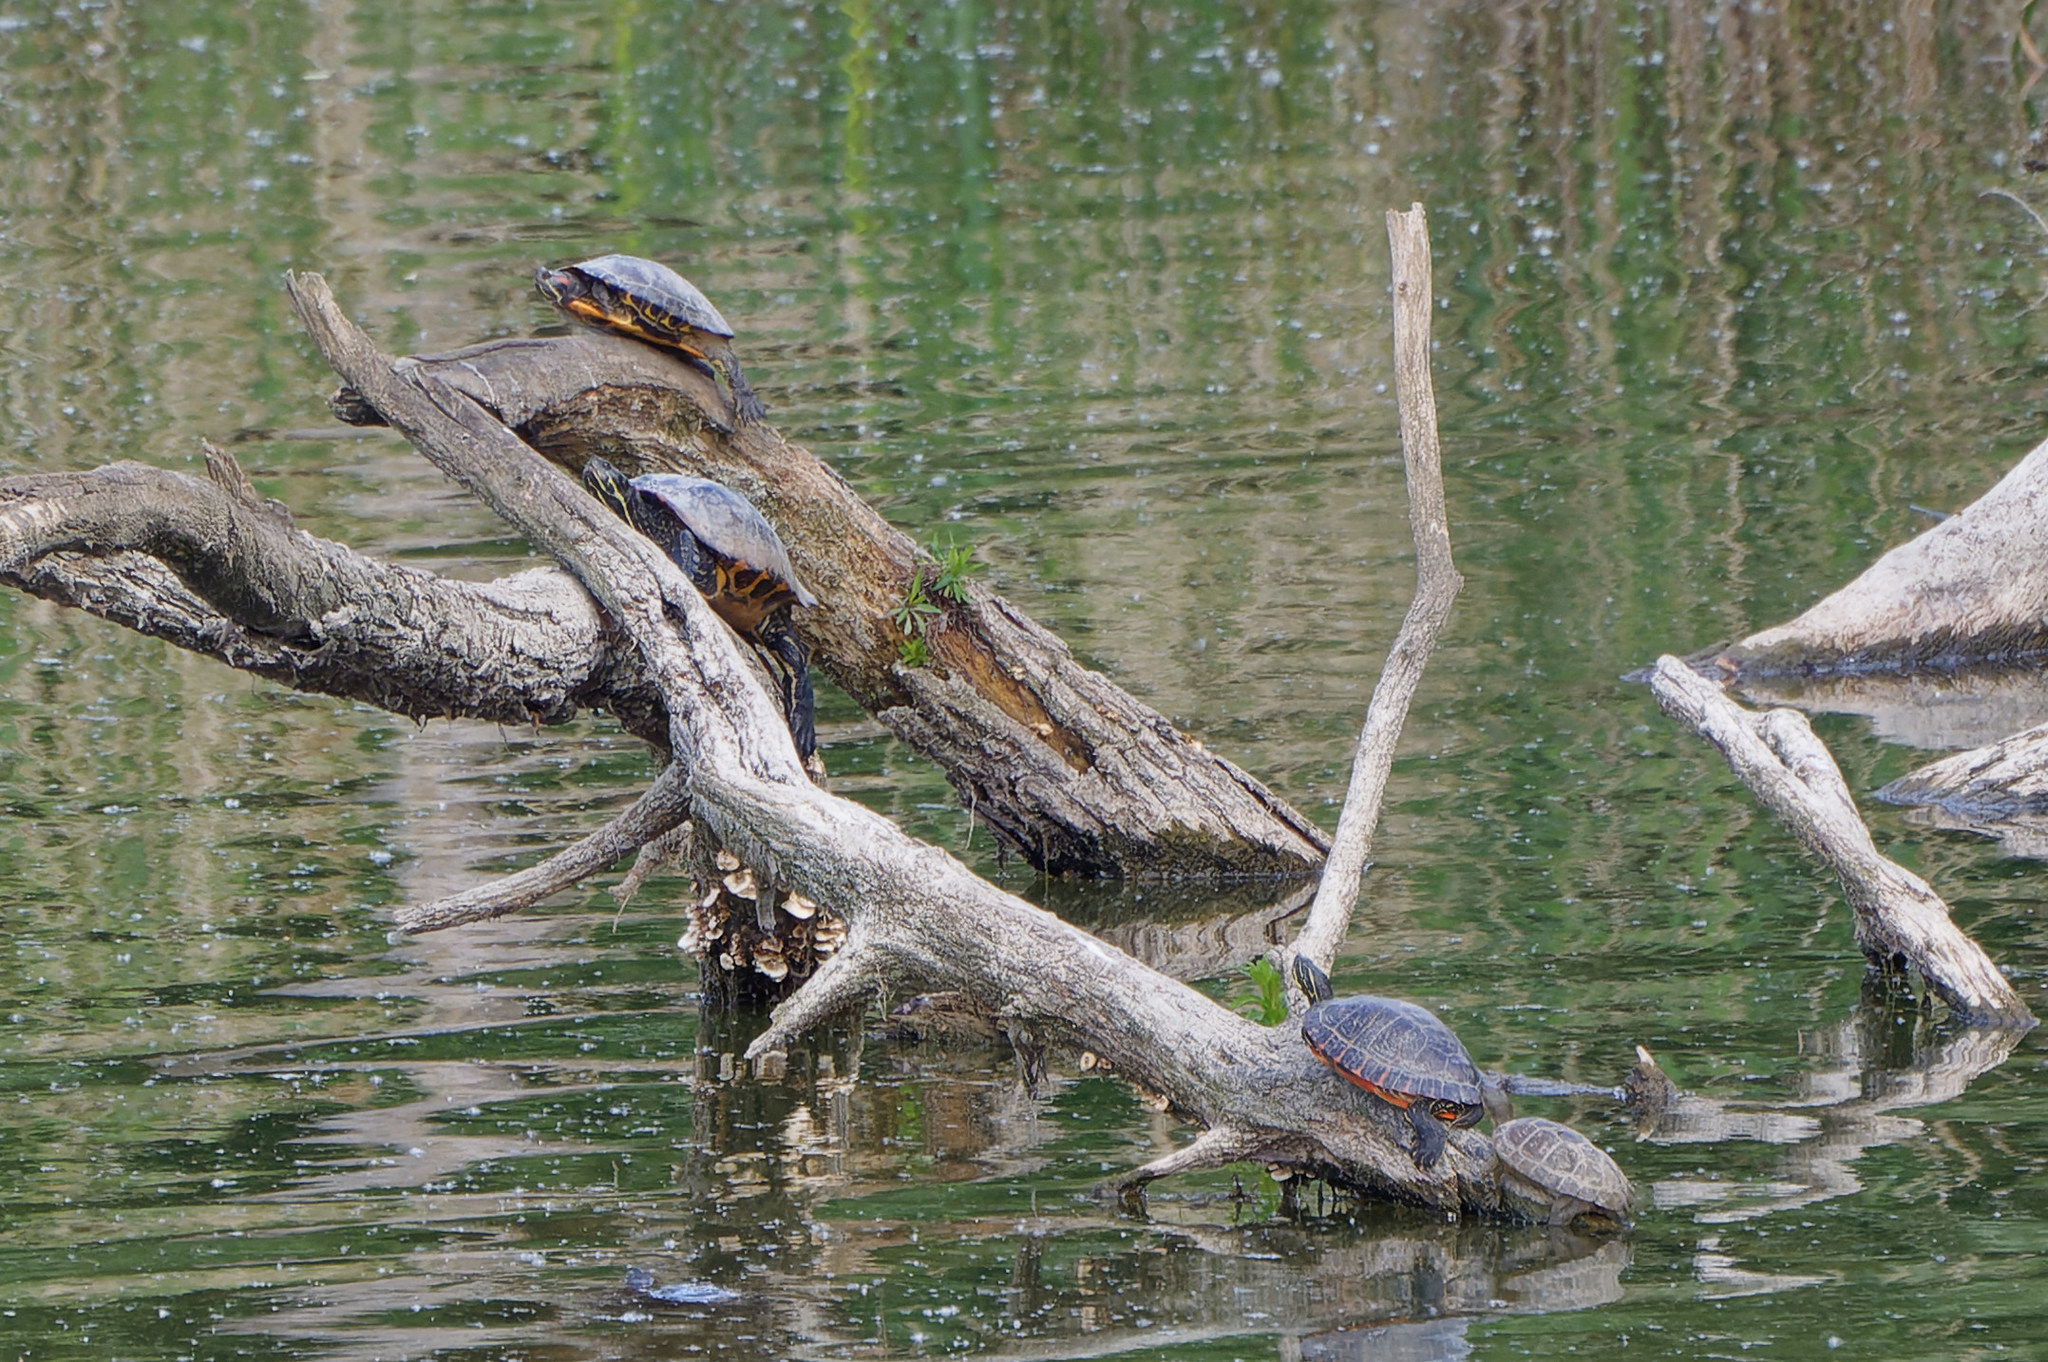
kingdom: Animalia
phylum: Chordata
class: Testudines
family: Emydidae
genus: Trachemys
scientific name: Trachemys scripta
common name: Slider
